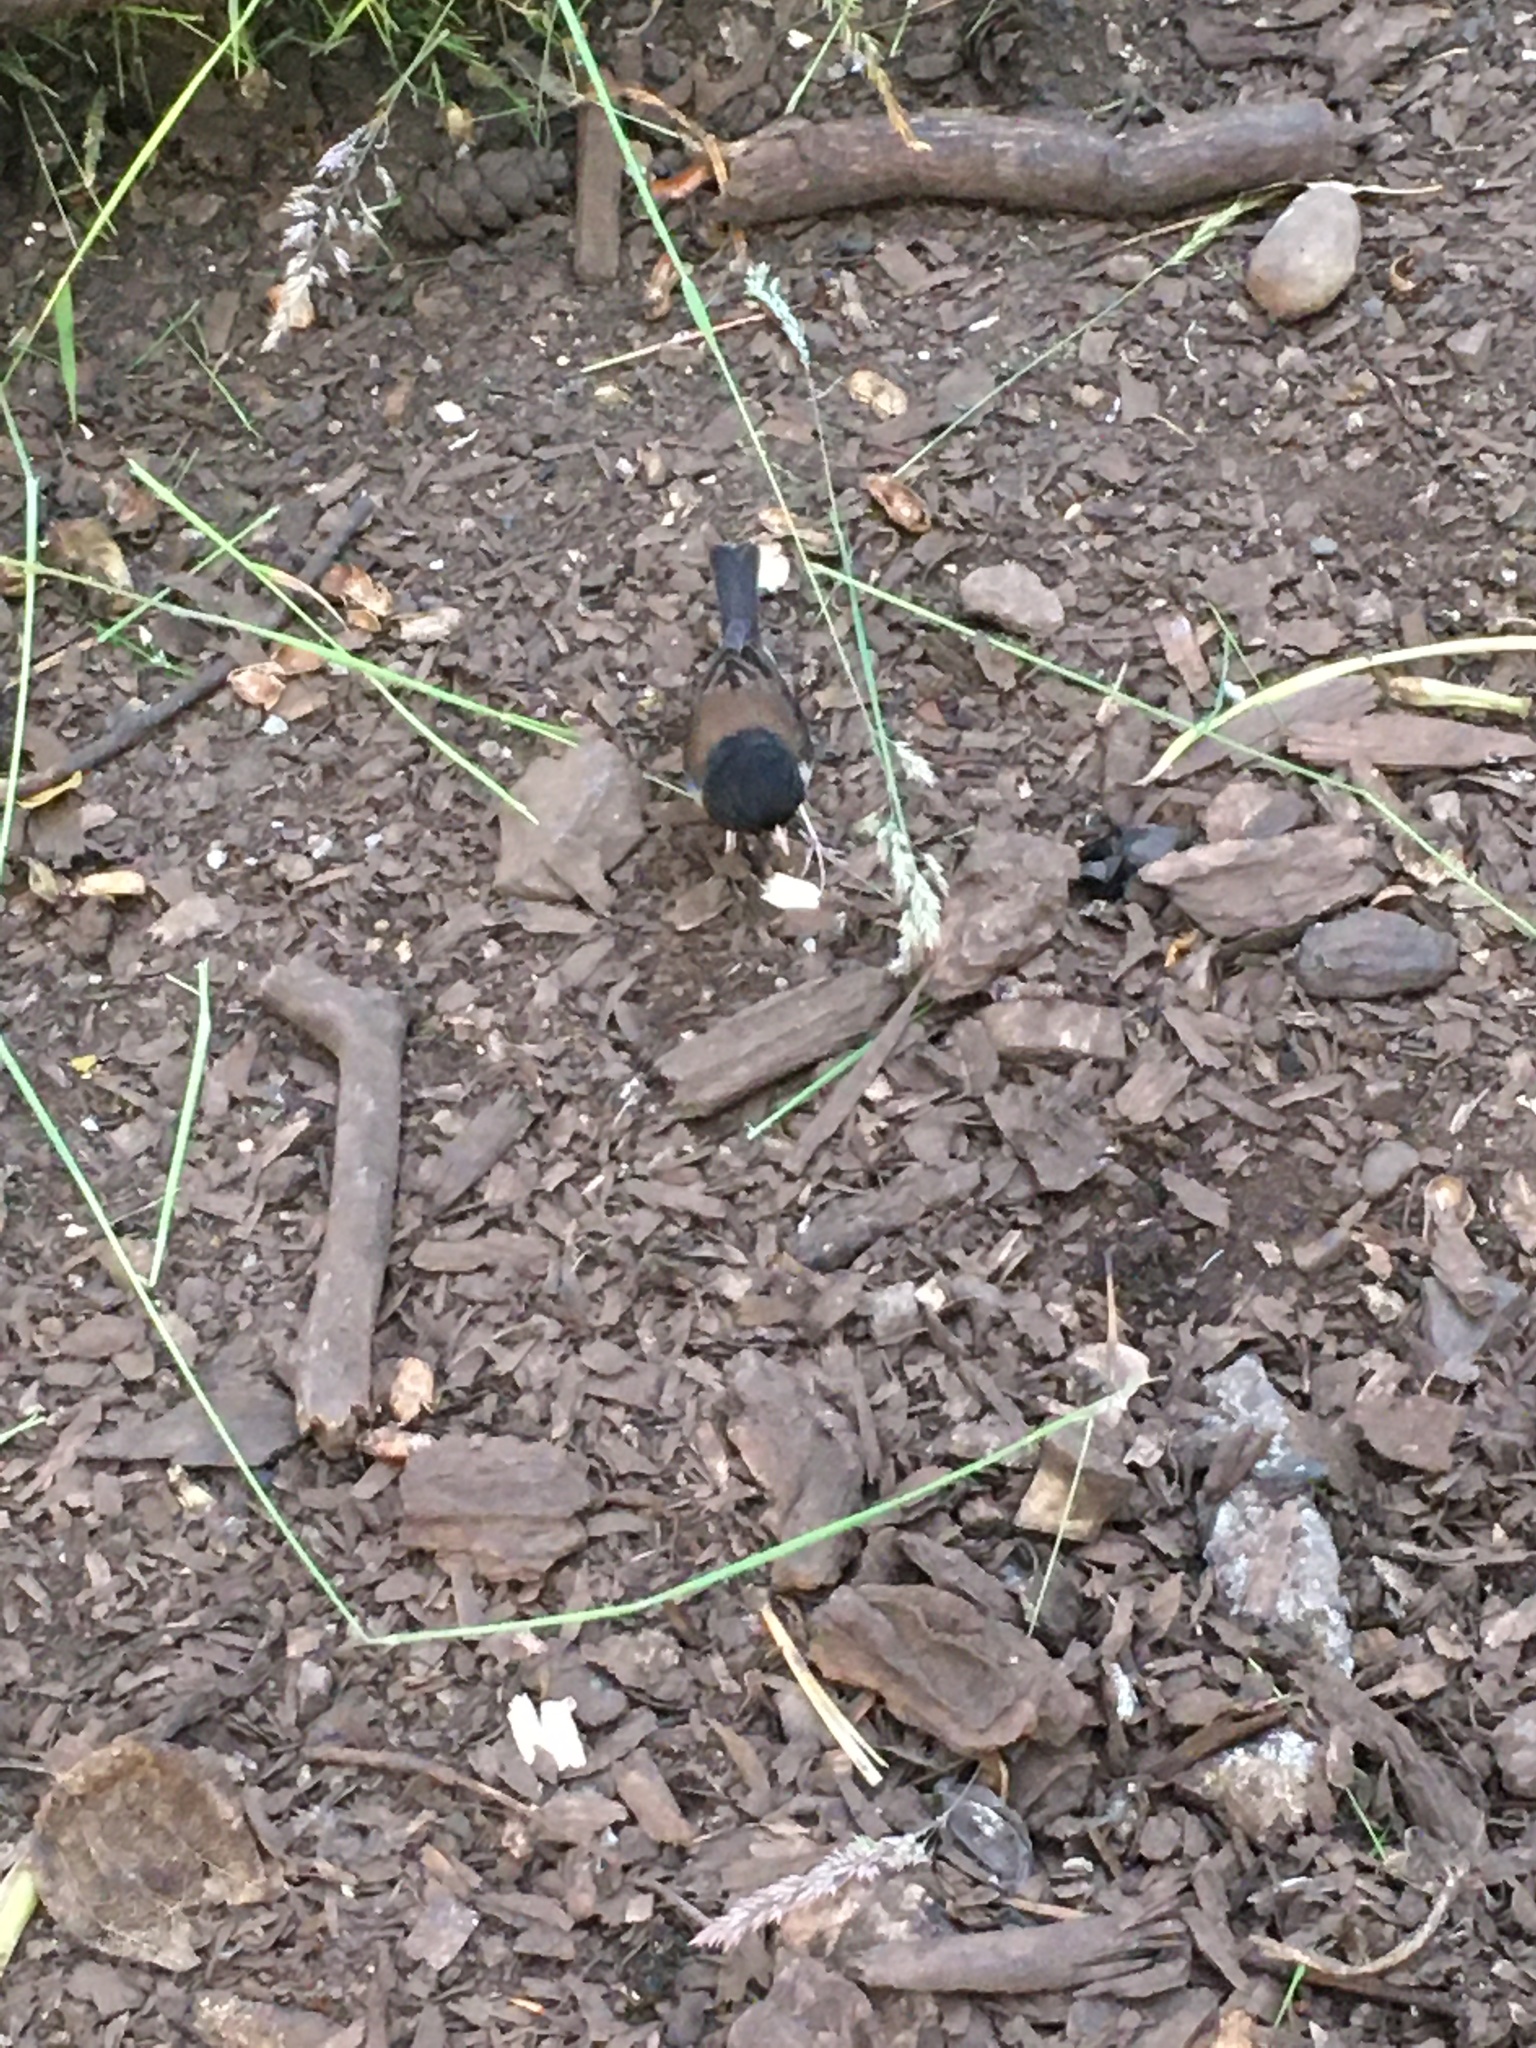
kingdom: Animalia
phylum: Chordata
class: Aves
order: Passeriformes
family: Passerellidae
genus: Junco
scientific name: Junco hyemalis
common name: Dark-eyed junco
